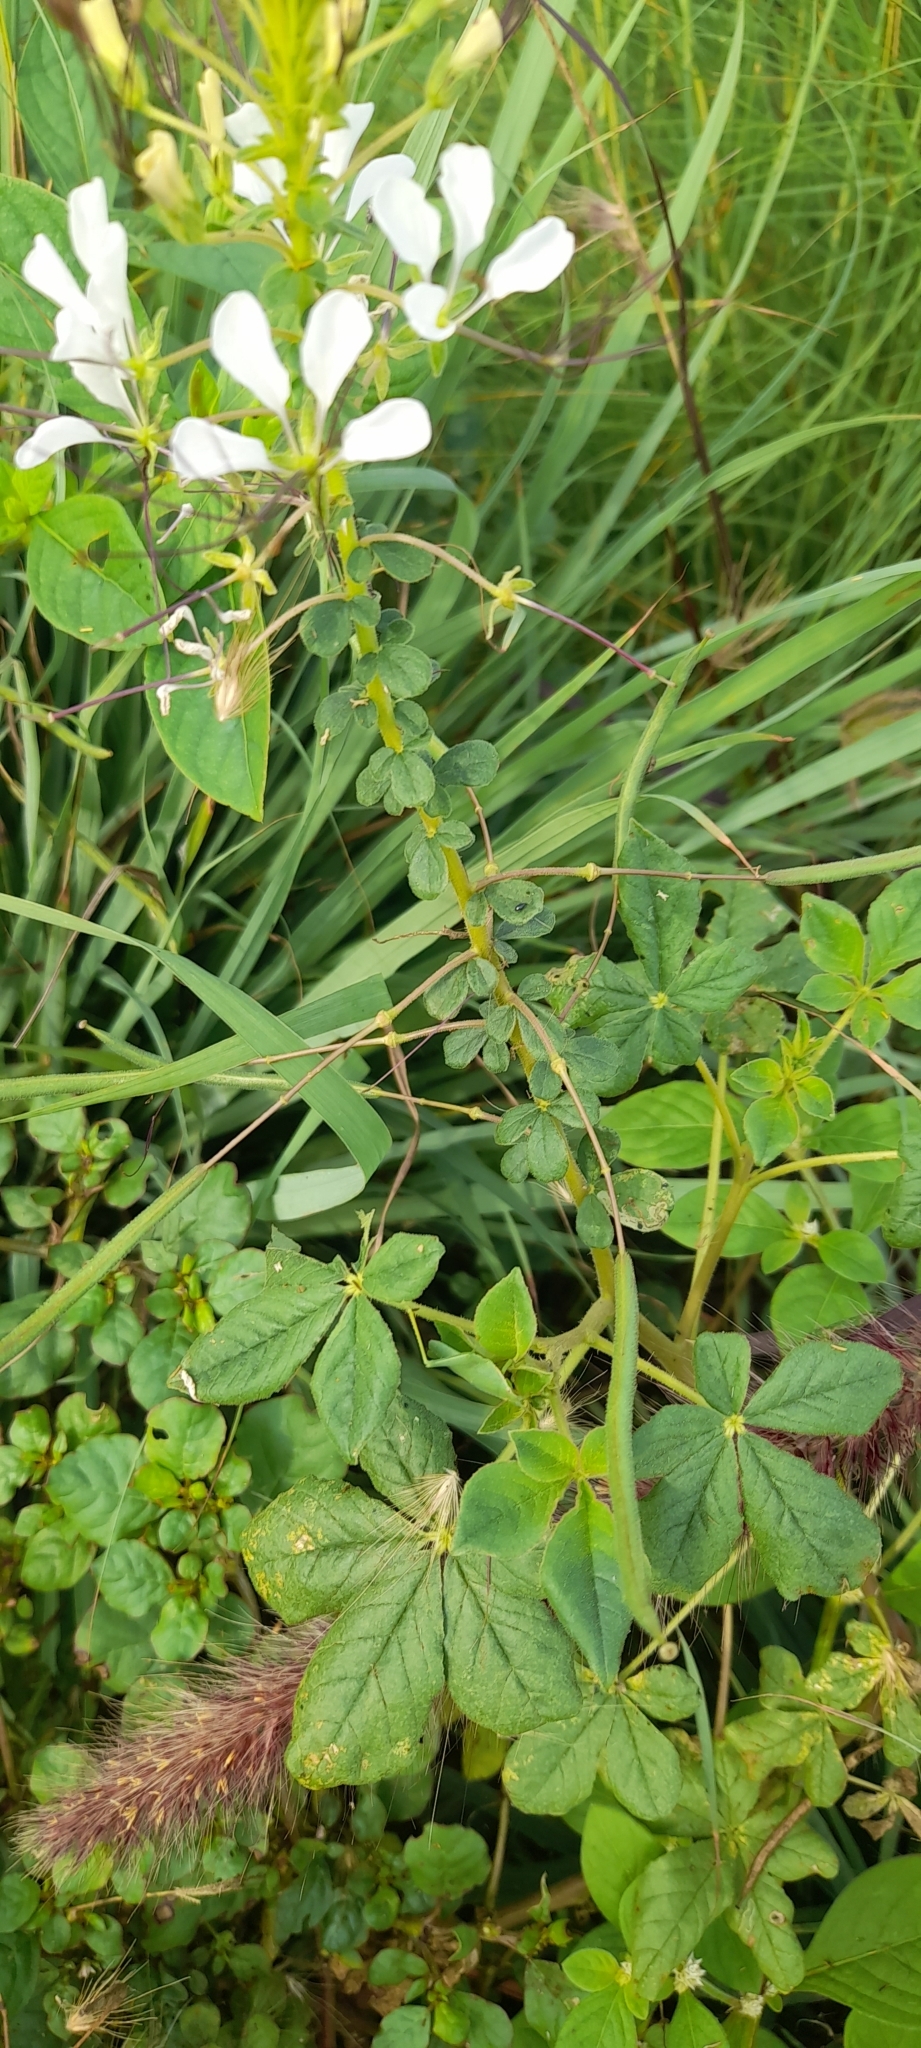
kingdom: Plantae
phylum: Tracheophyta
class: Magnoliopsida
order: Brassicales
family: Cleomaceae
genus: Gynandropsis
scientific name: Gynandropsis gynandra
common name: Spiderwisp
